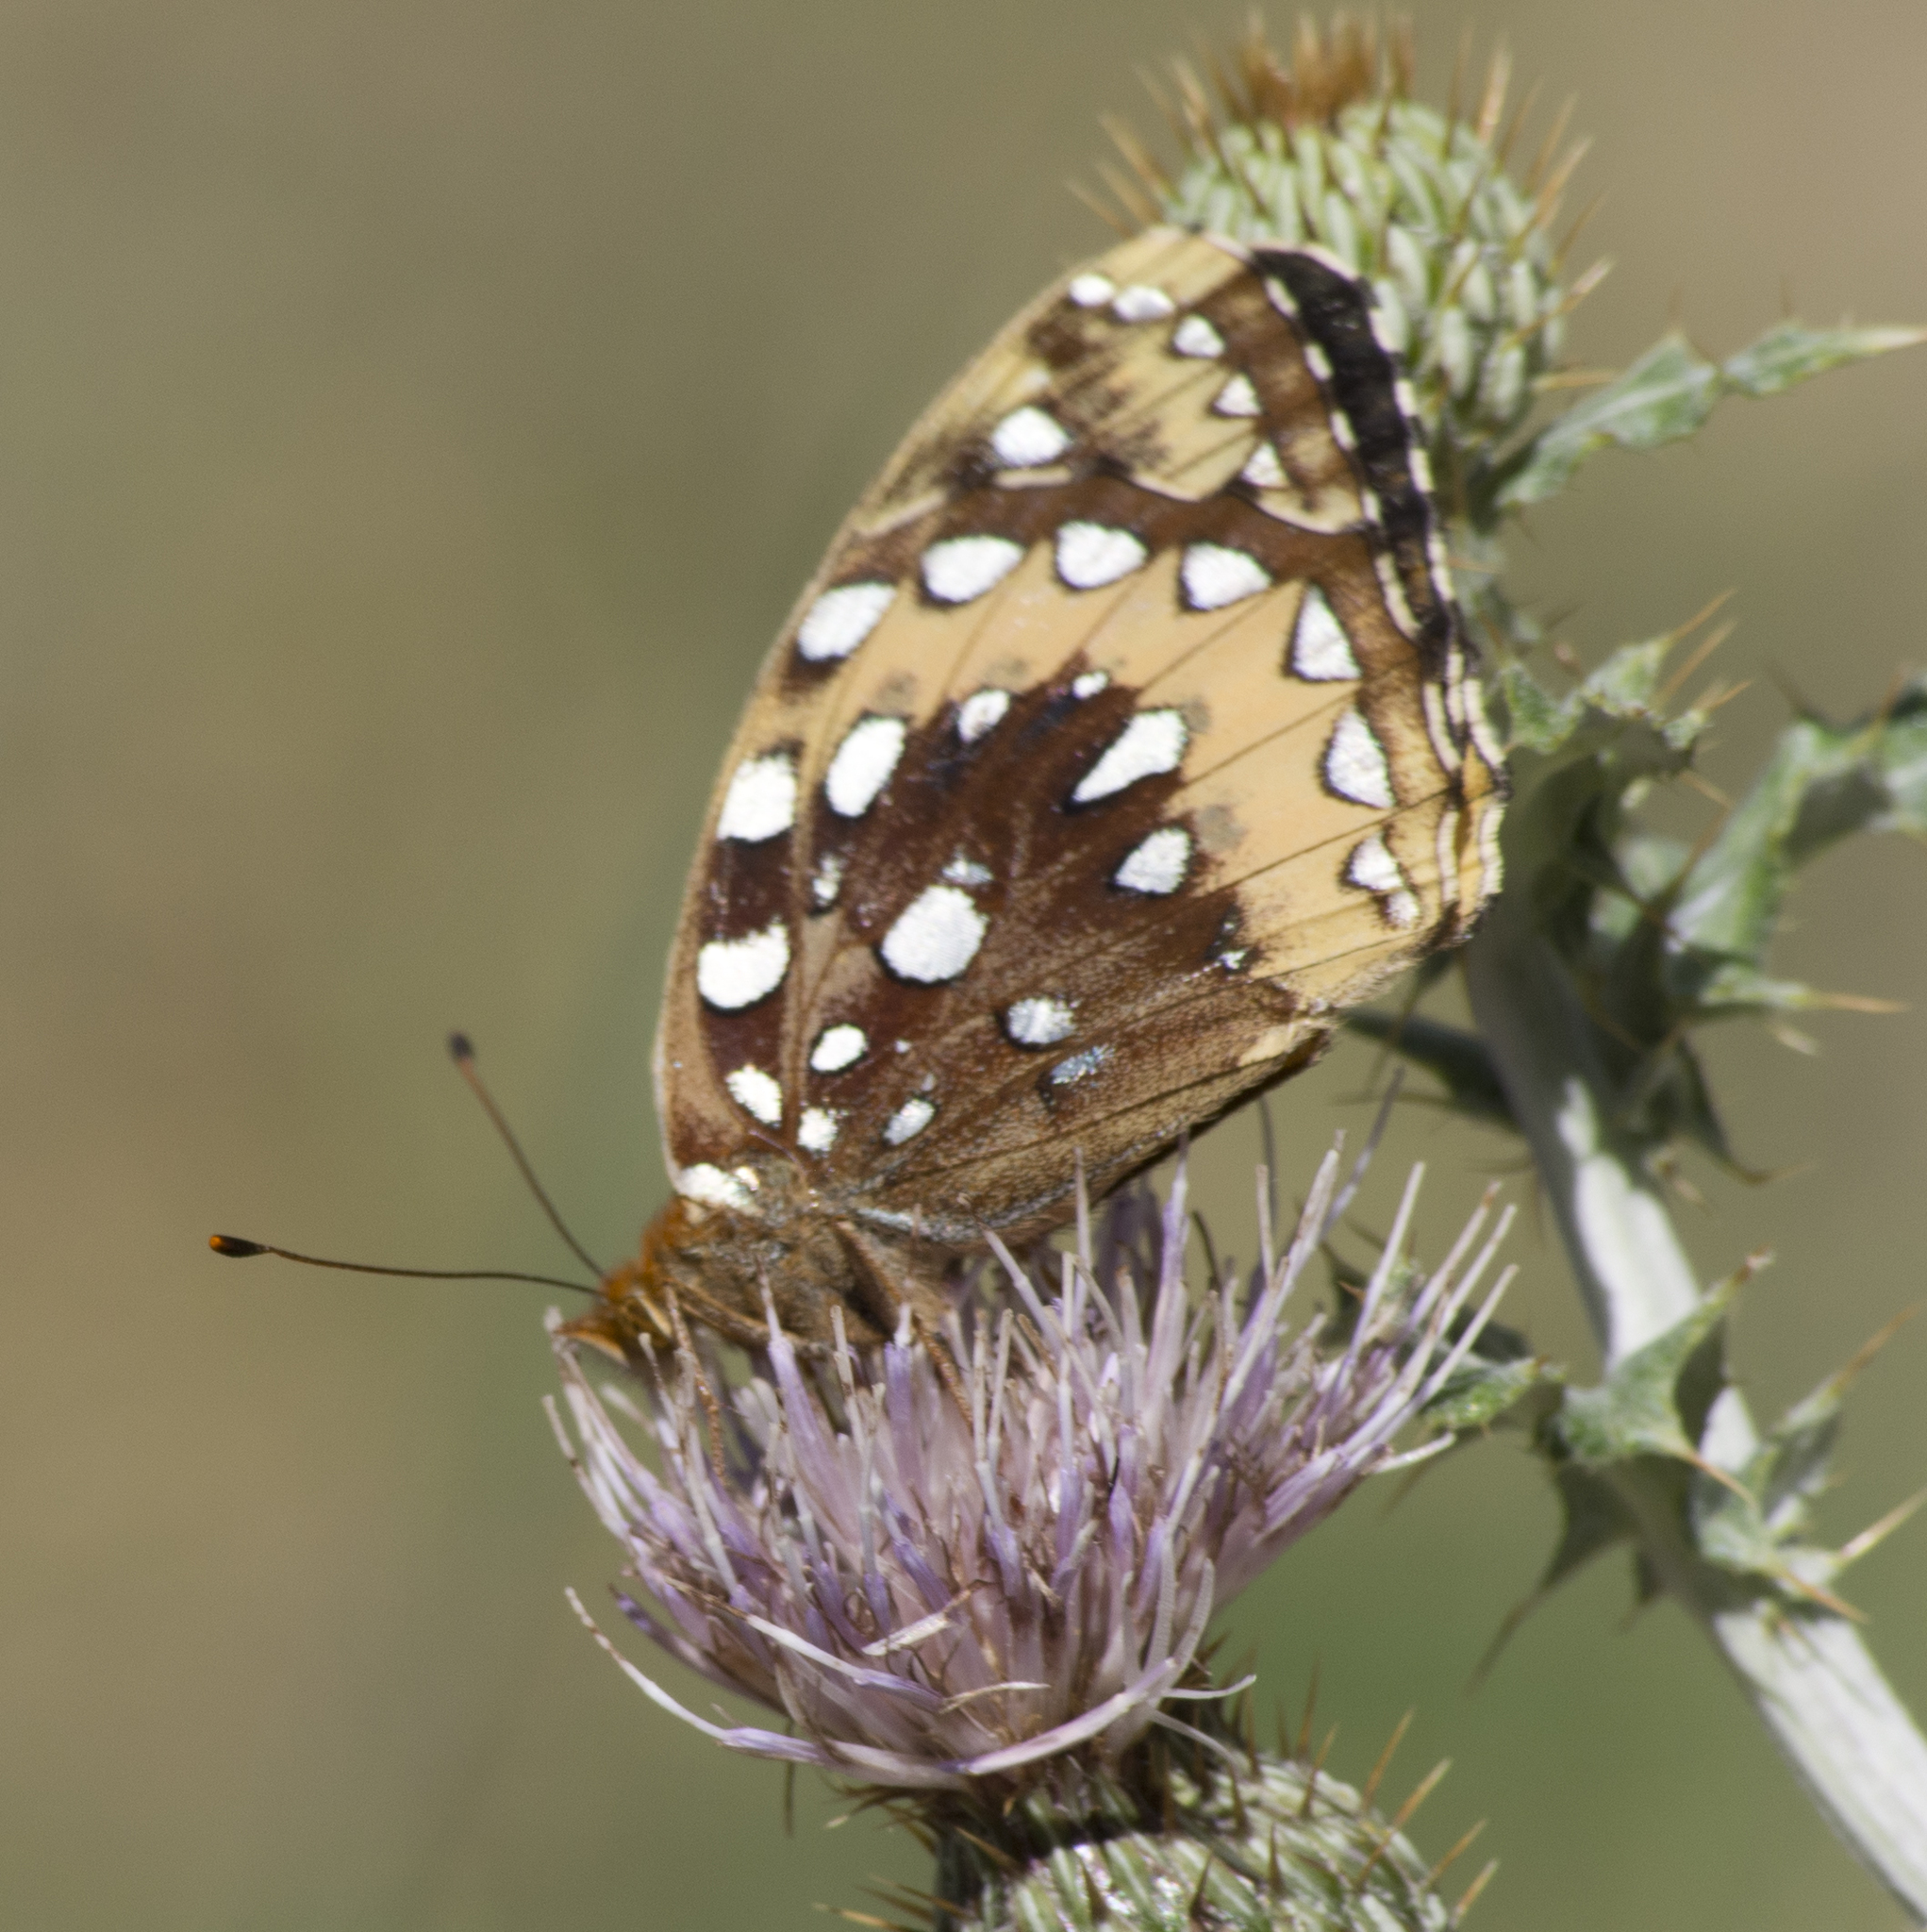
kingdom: Animalia
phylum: Arthropoda
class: Insecta
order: Lepidoptera
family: Nymphalidae
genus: Speyeria
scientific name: Speyeria cybele
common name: Great spangled fritillary
